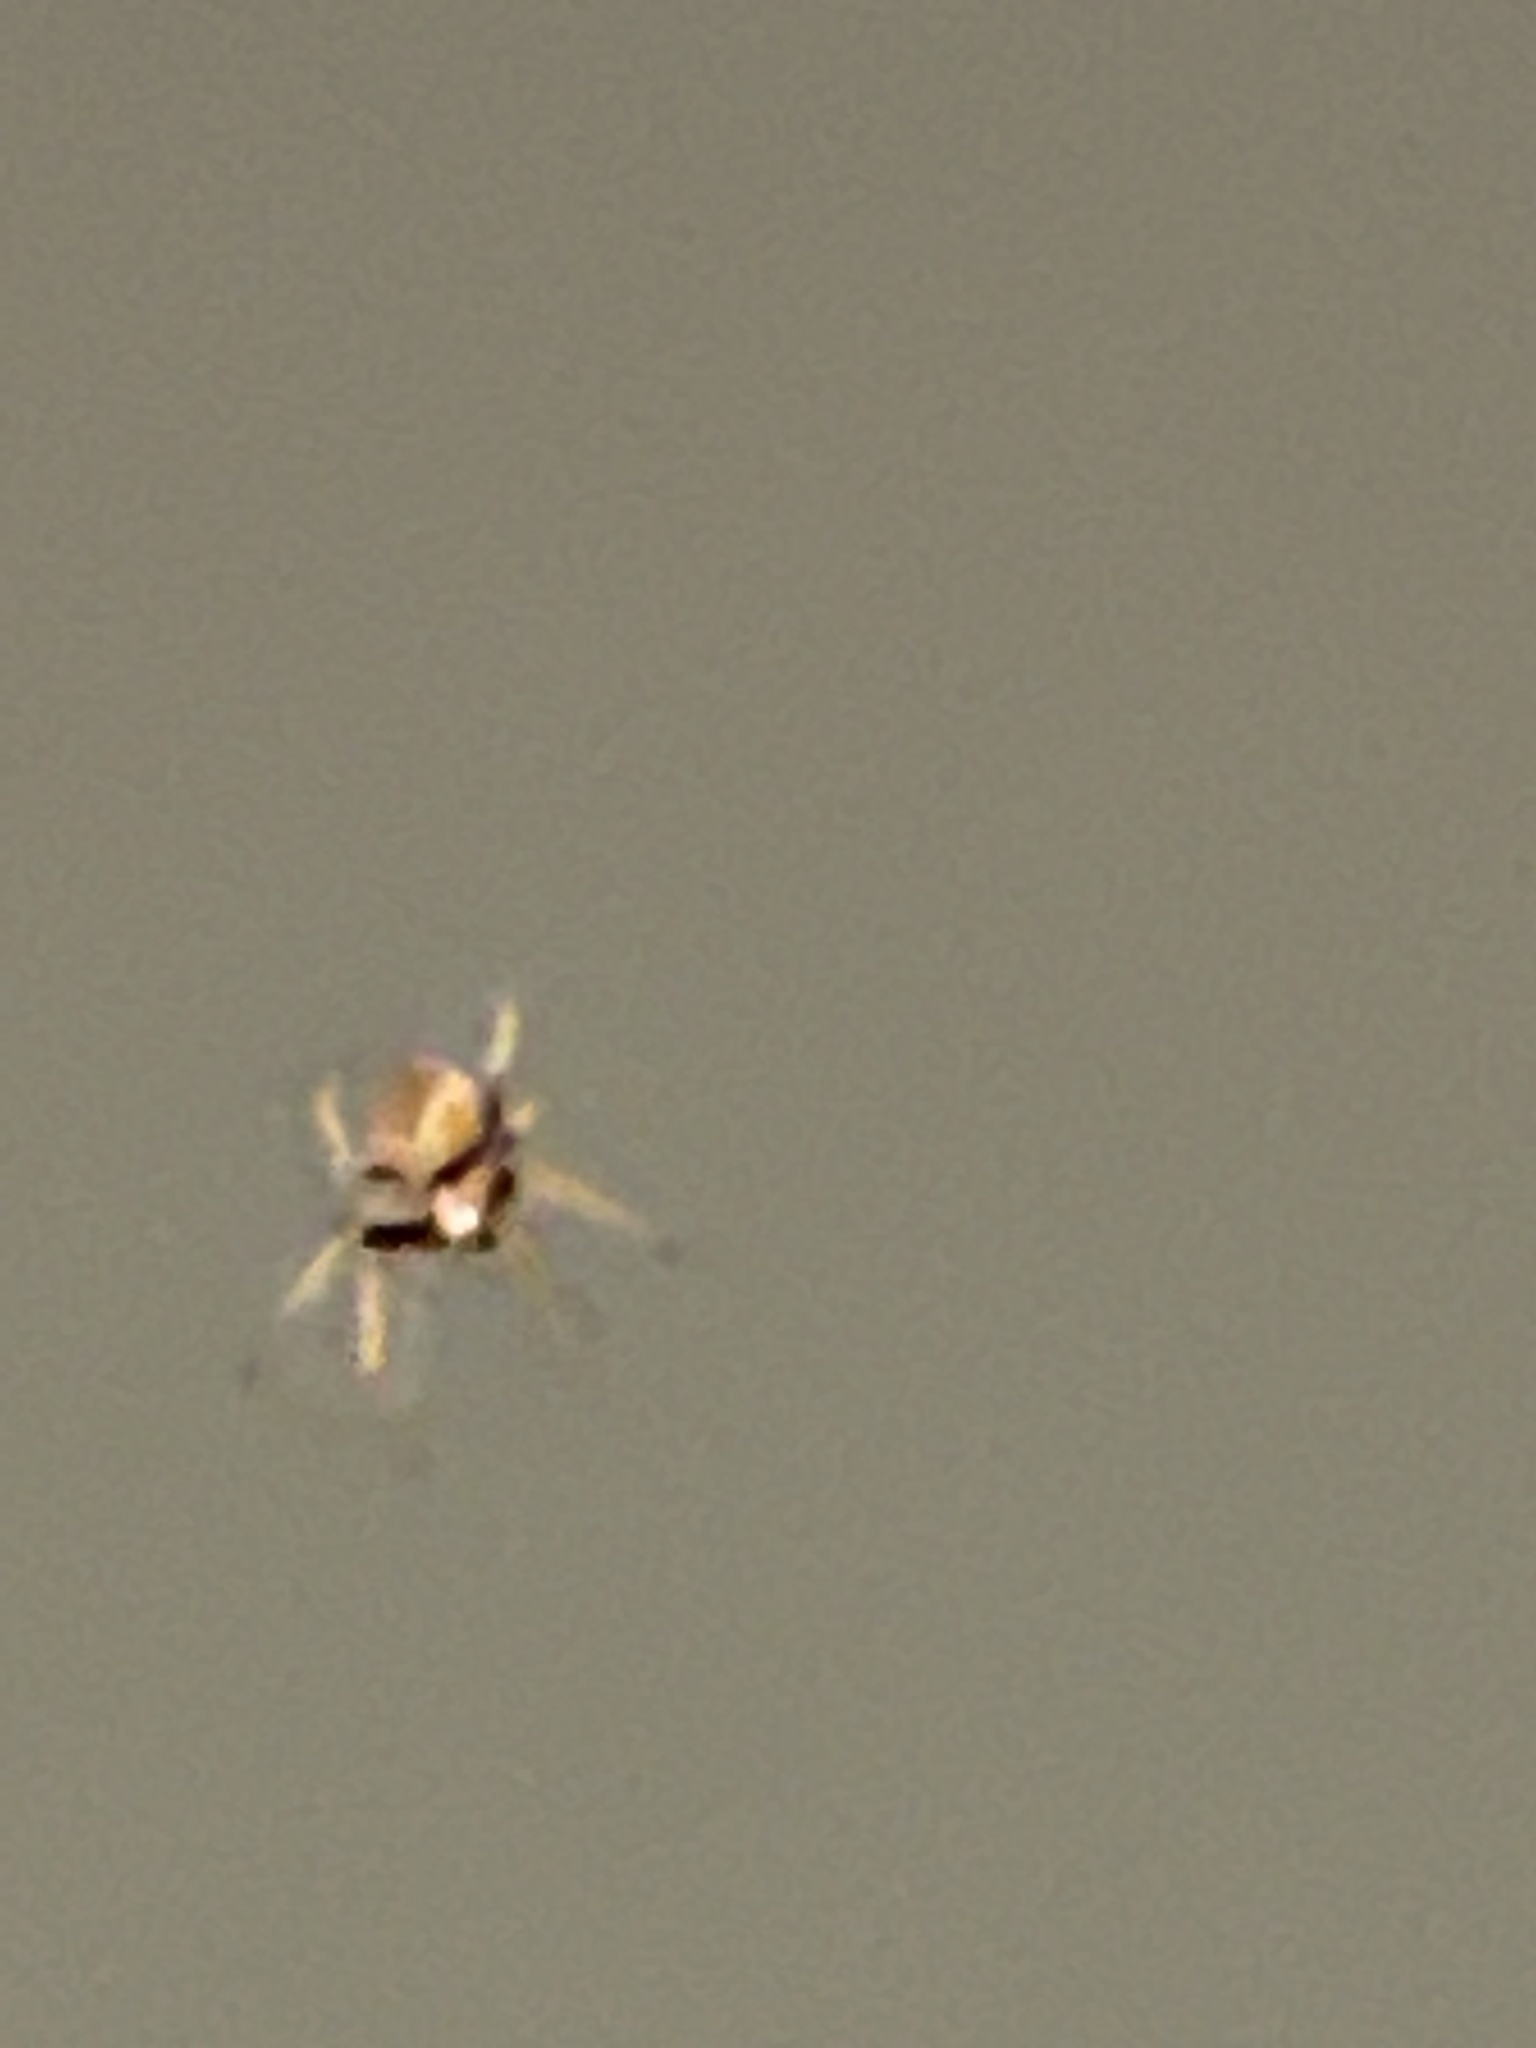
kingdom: Animalia
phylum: Arthropoda
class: Arachnida
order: Araneae
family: Araneidae
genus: Eriophora
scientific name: Eriophora ravilla
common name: Orb weavers
